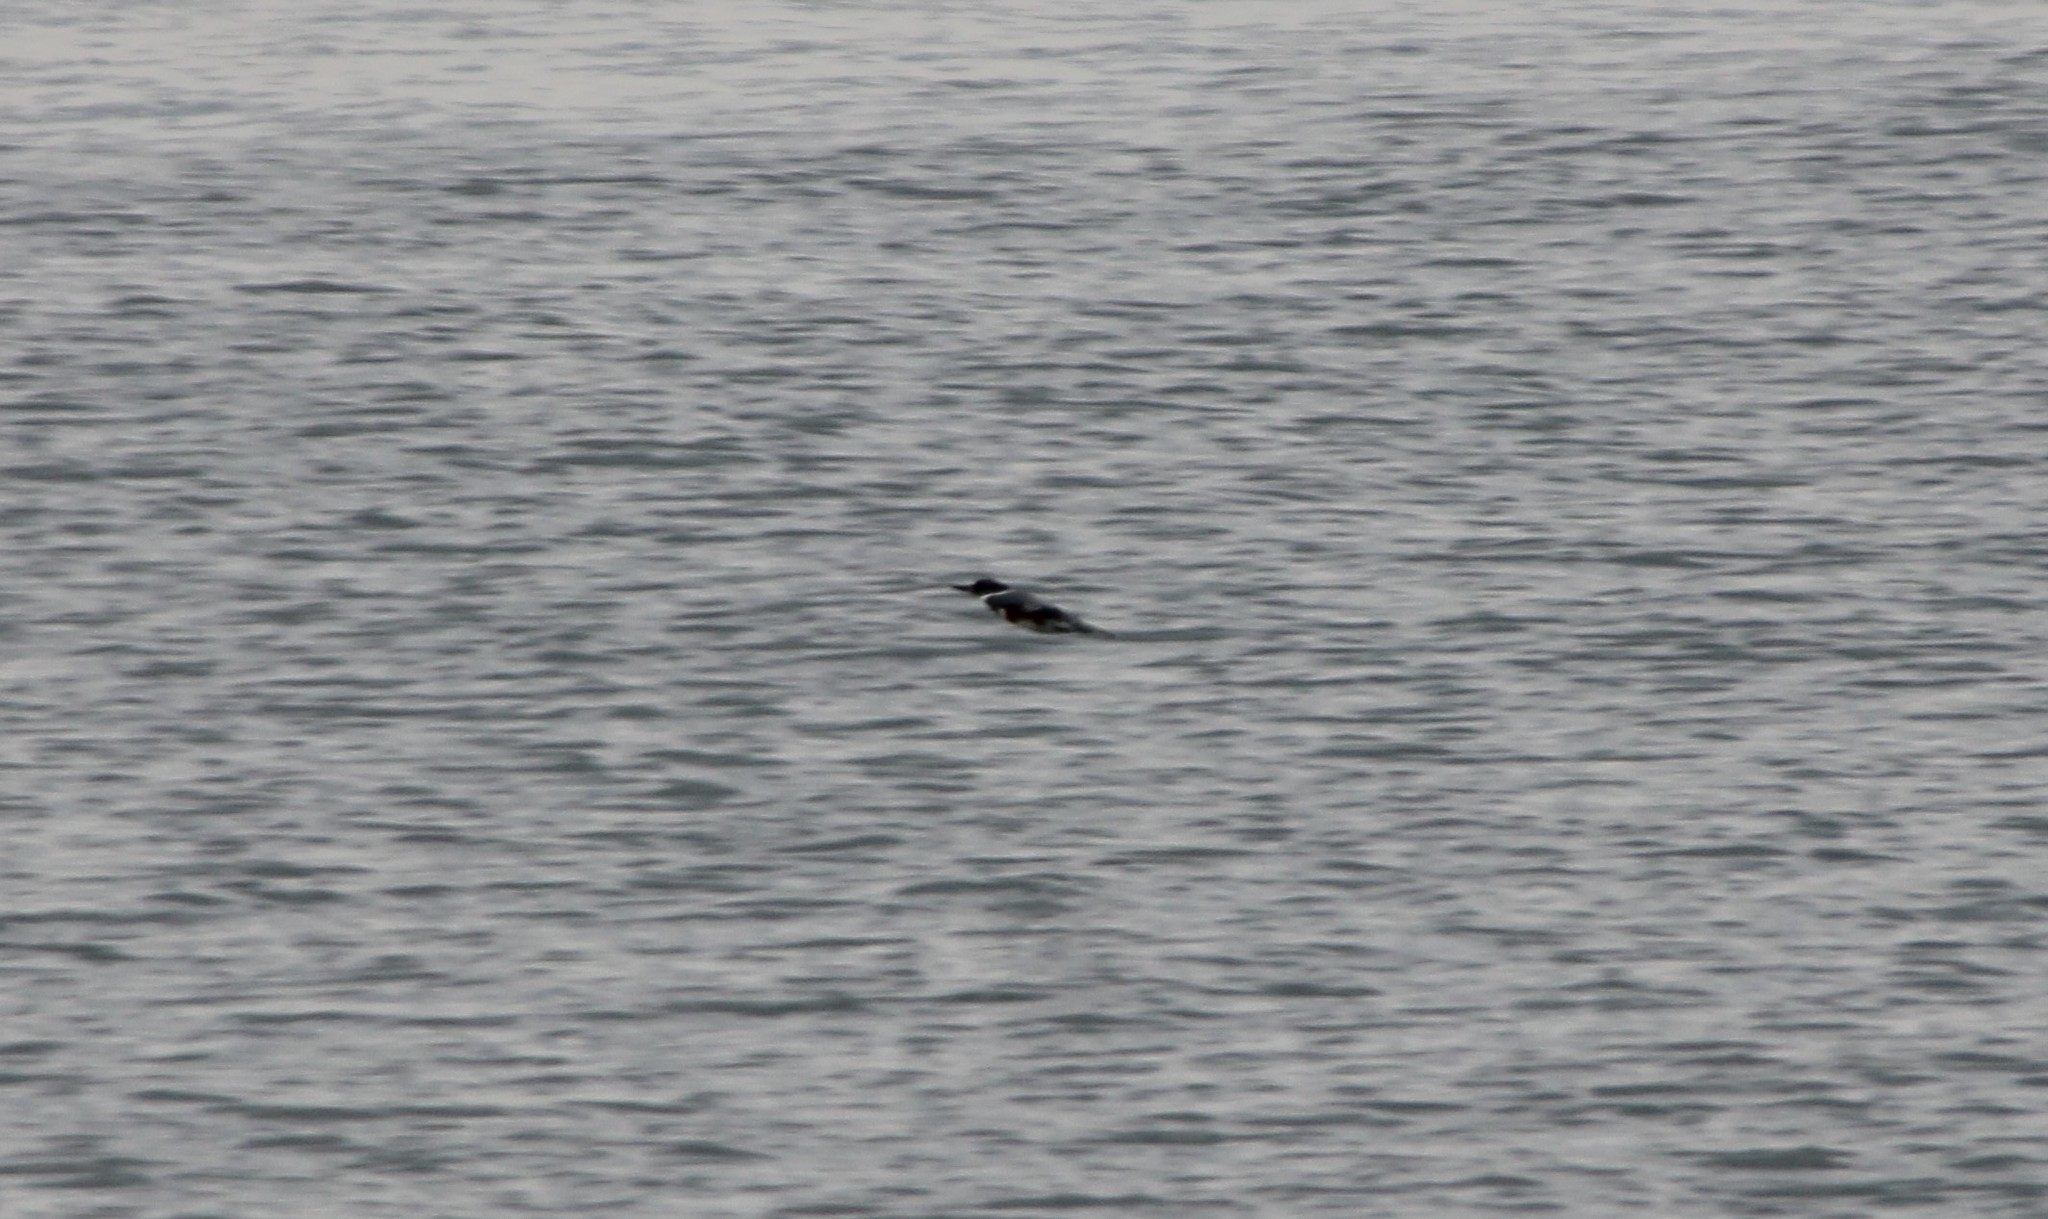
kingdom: Animalia
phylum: Chordata
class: Aves
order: Coraciiformes
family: Alcedinidae
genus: Megaceryle
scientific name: Megaceryle alcyon
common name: Belted kingfisher
